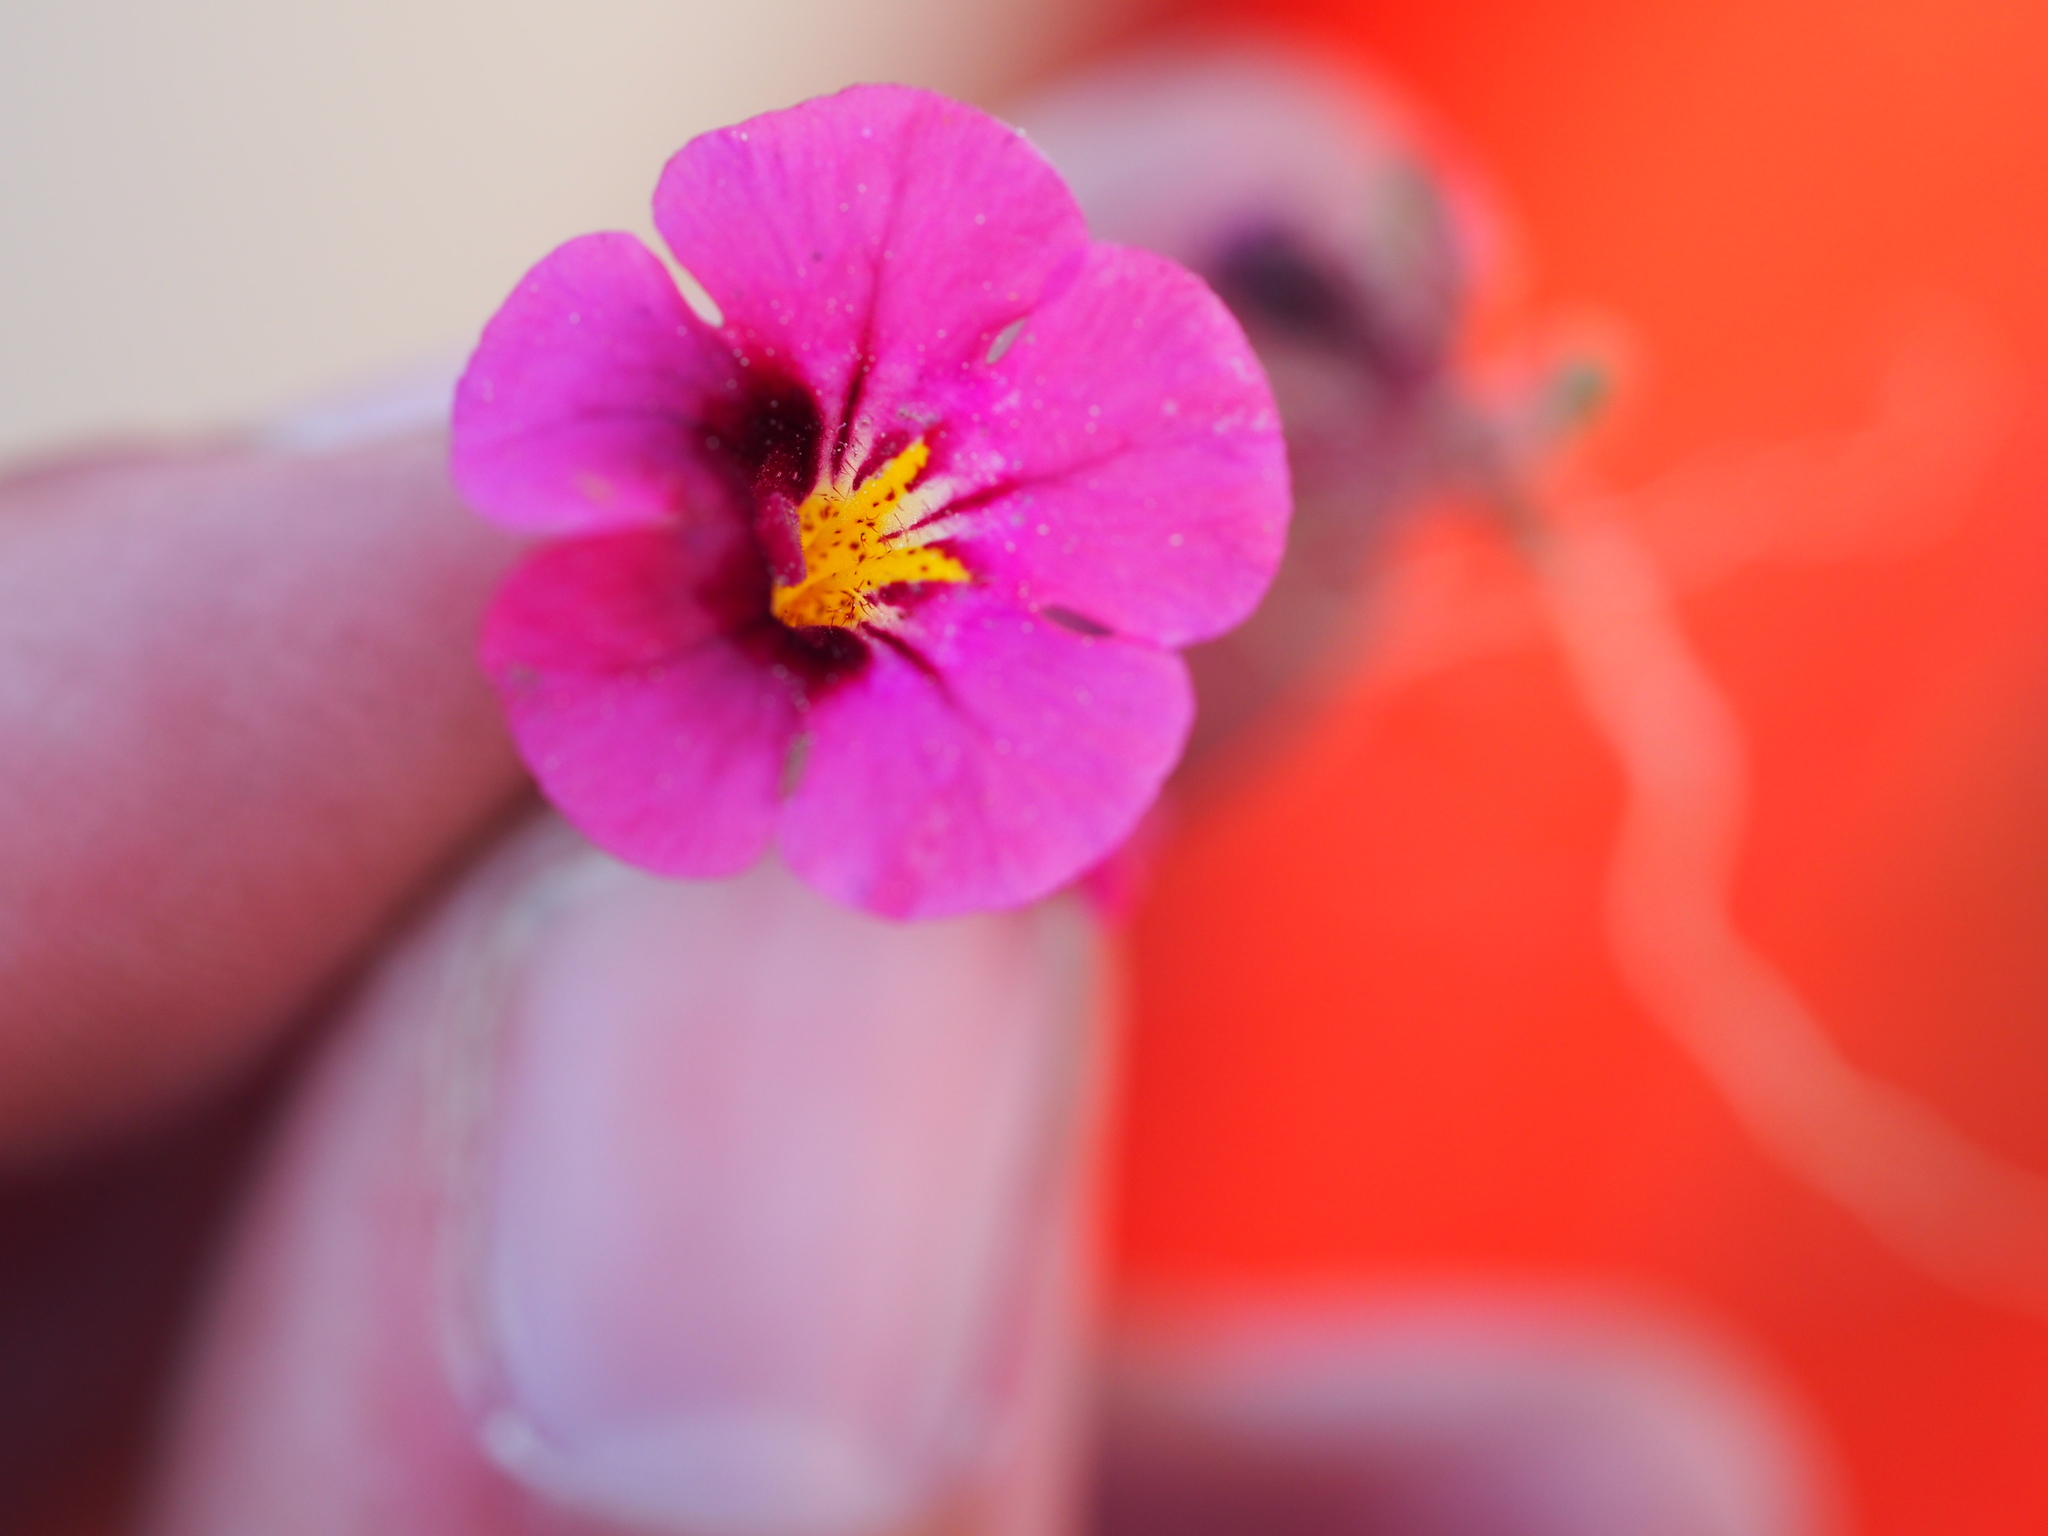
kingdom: Plantae
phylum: Tracheophyta
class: Magnoliopsida
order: Lamiales
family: Phrymaceae
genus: Diplacus
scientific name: Diplacus bicolor
